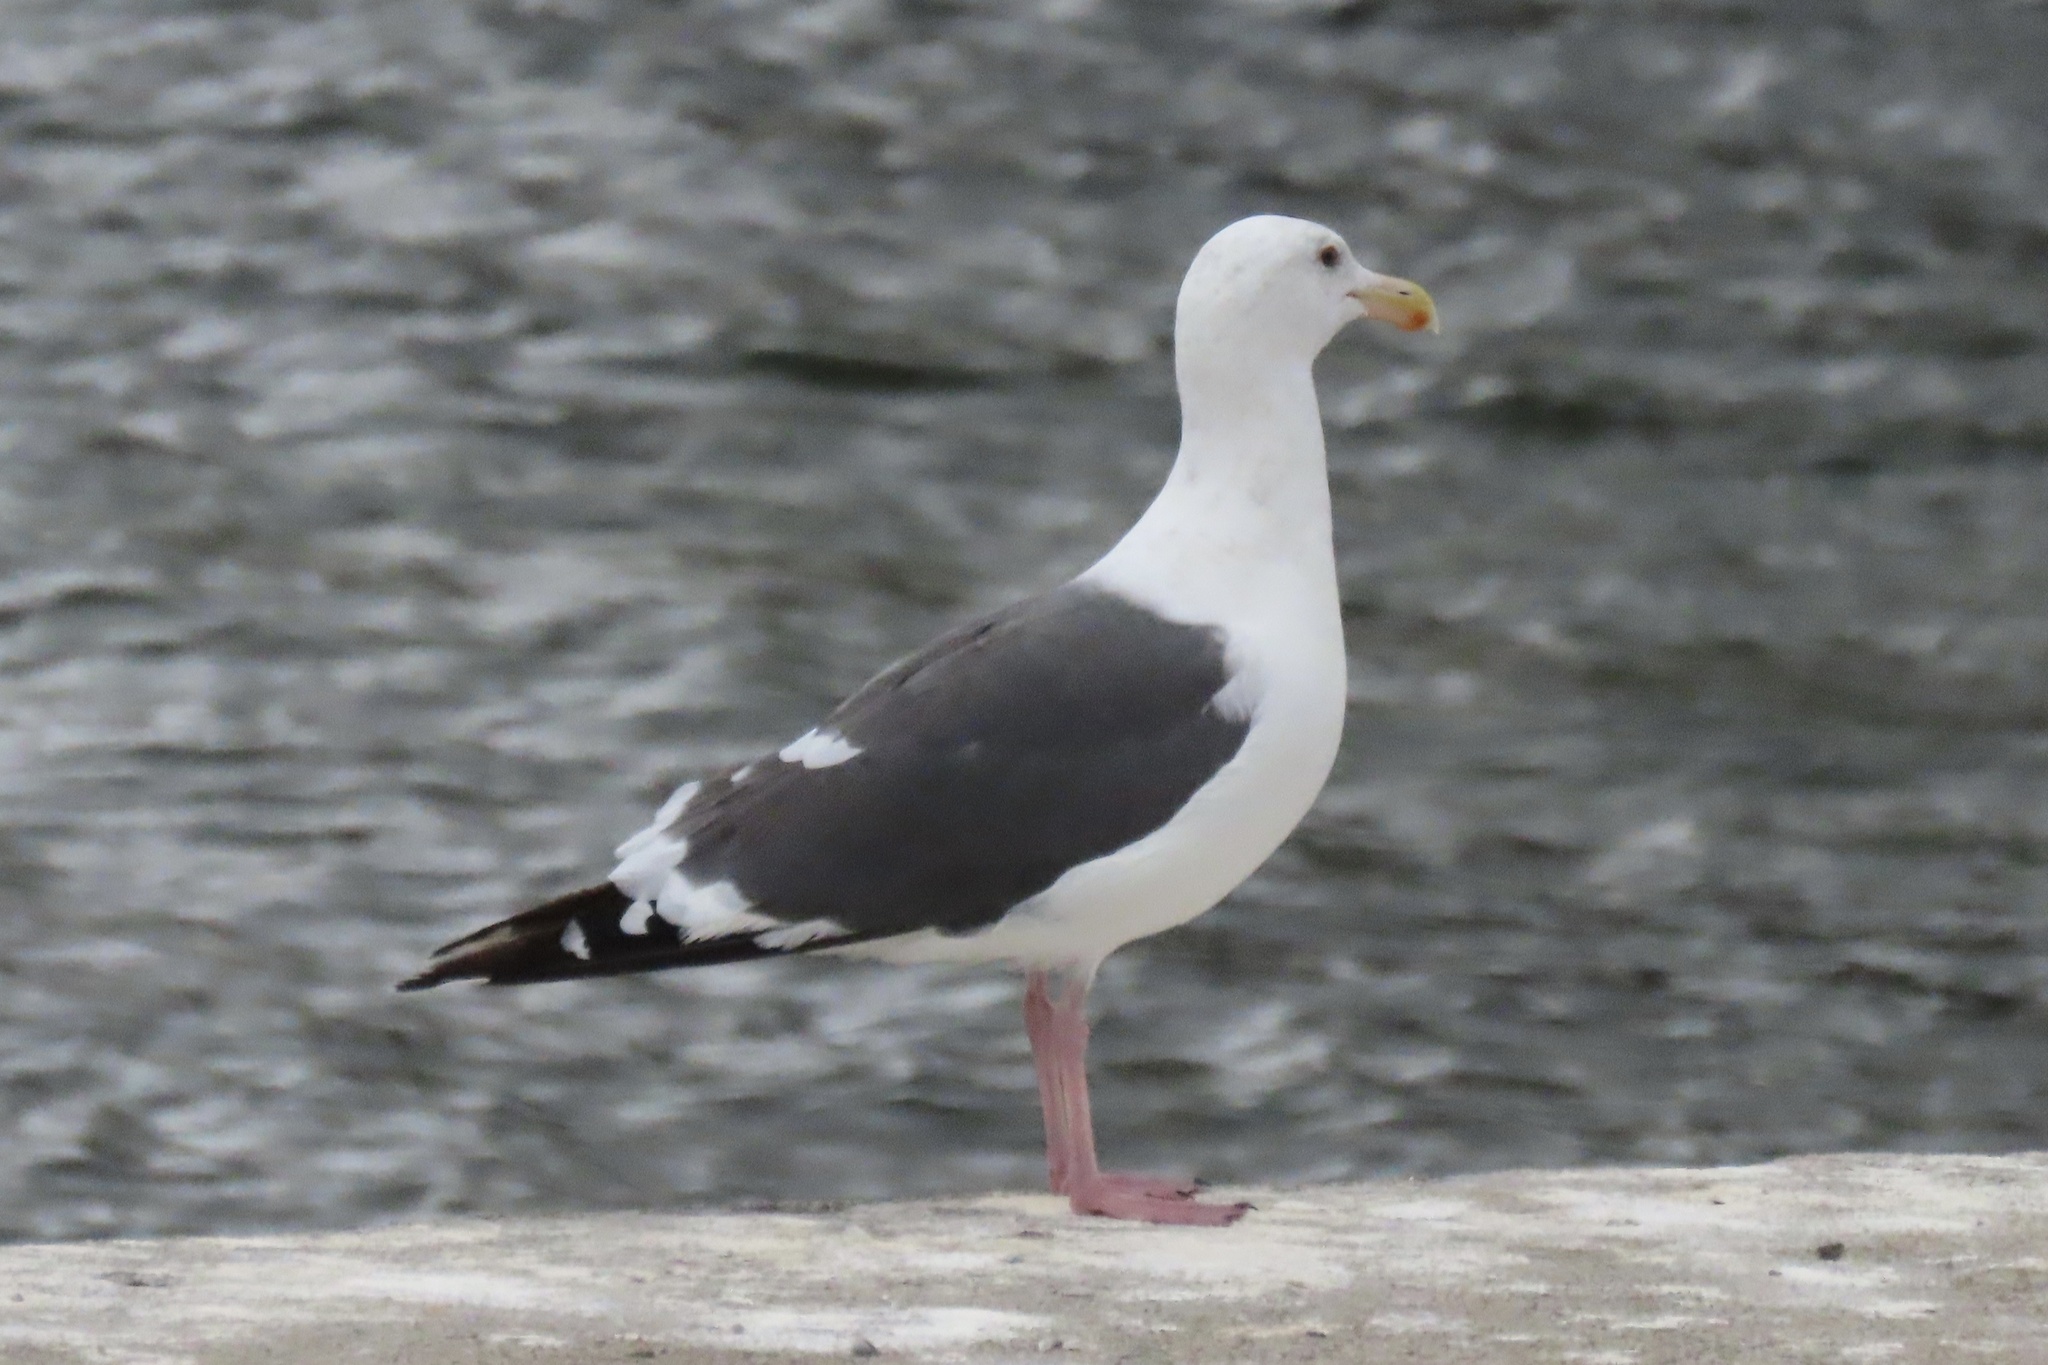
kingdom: Animalia
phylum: Chordata
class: Aves
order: Charadriiformes
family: Laridae
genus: Larus
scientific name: Larus occidentalis
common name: Western gull
